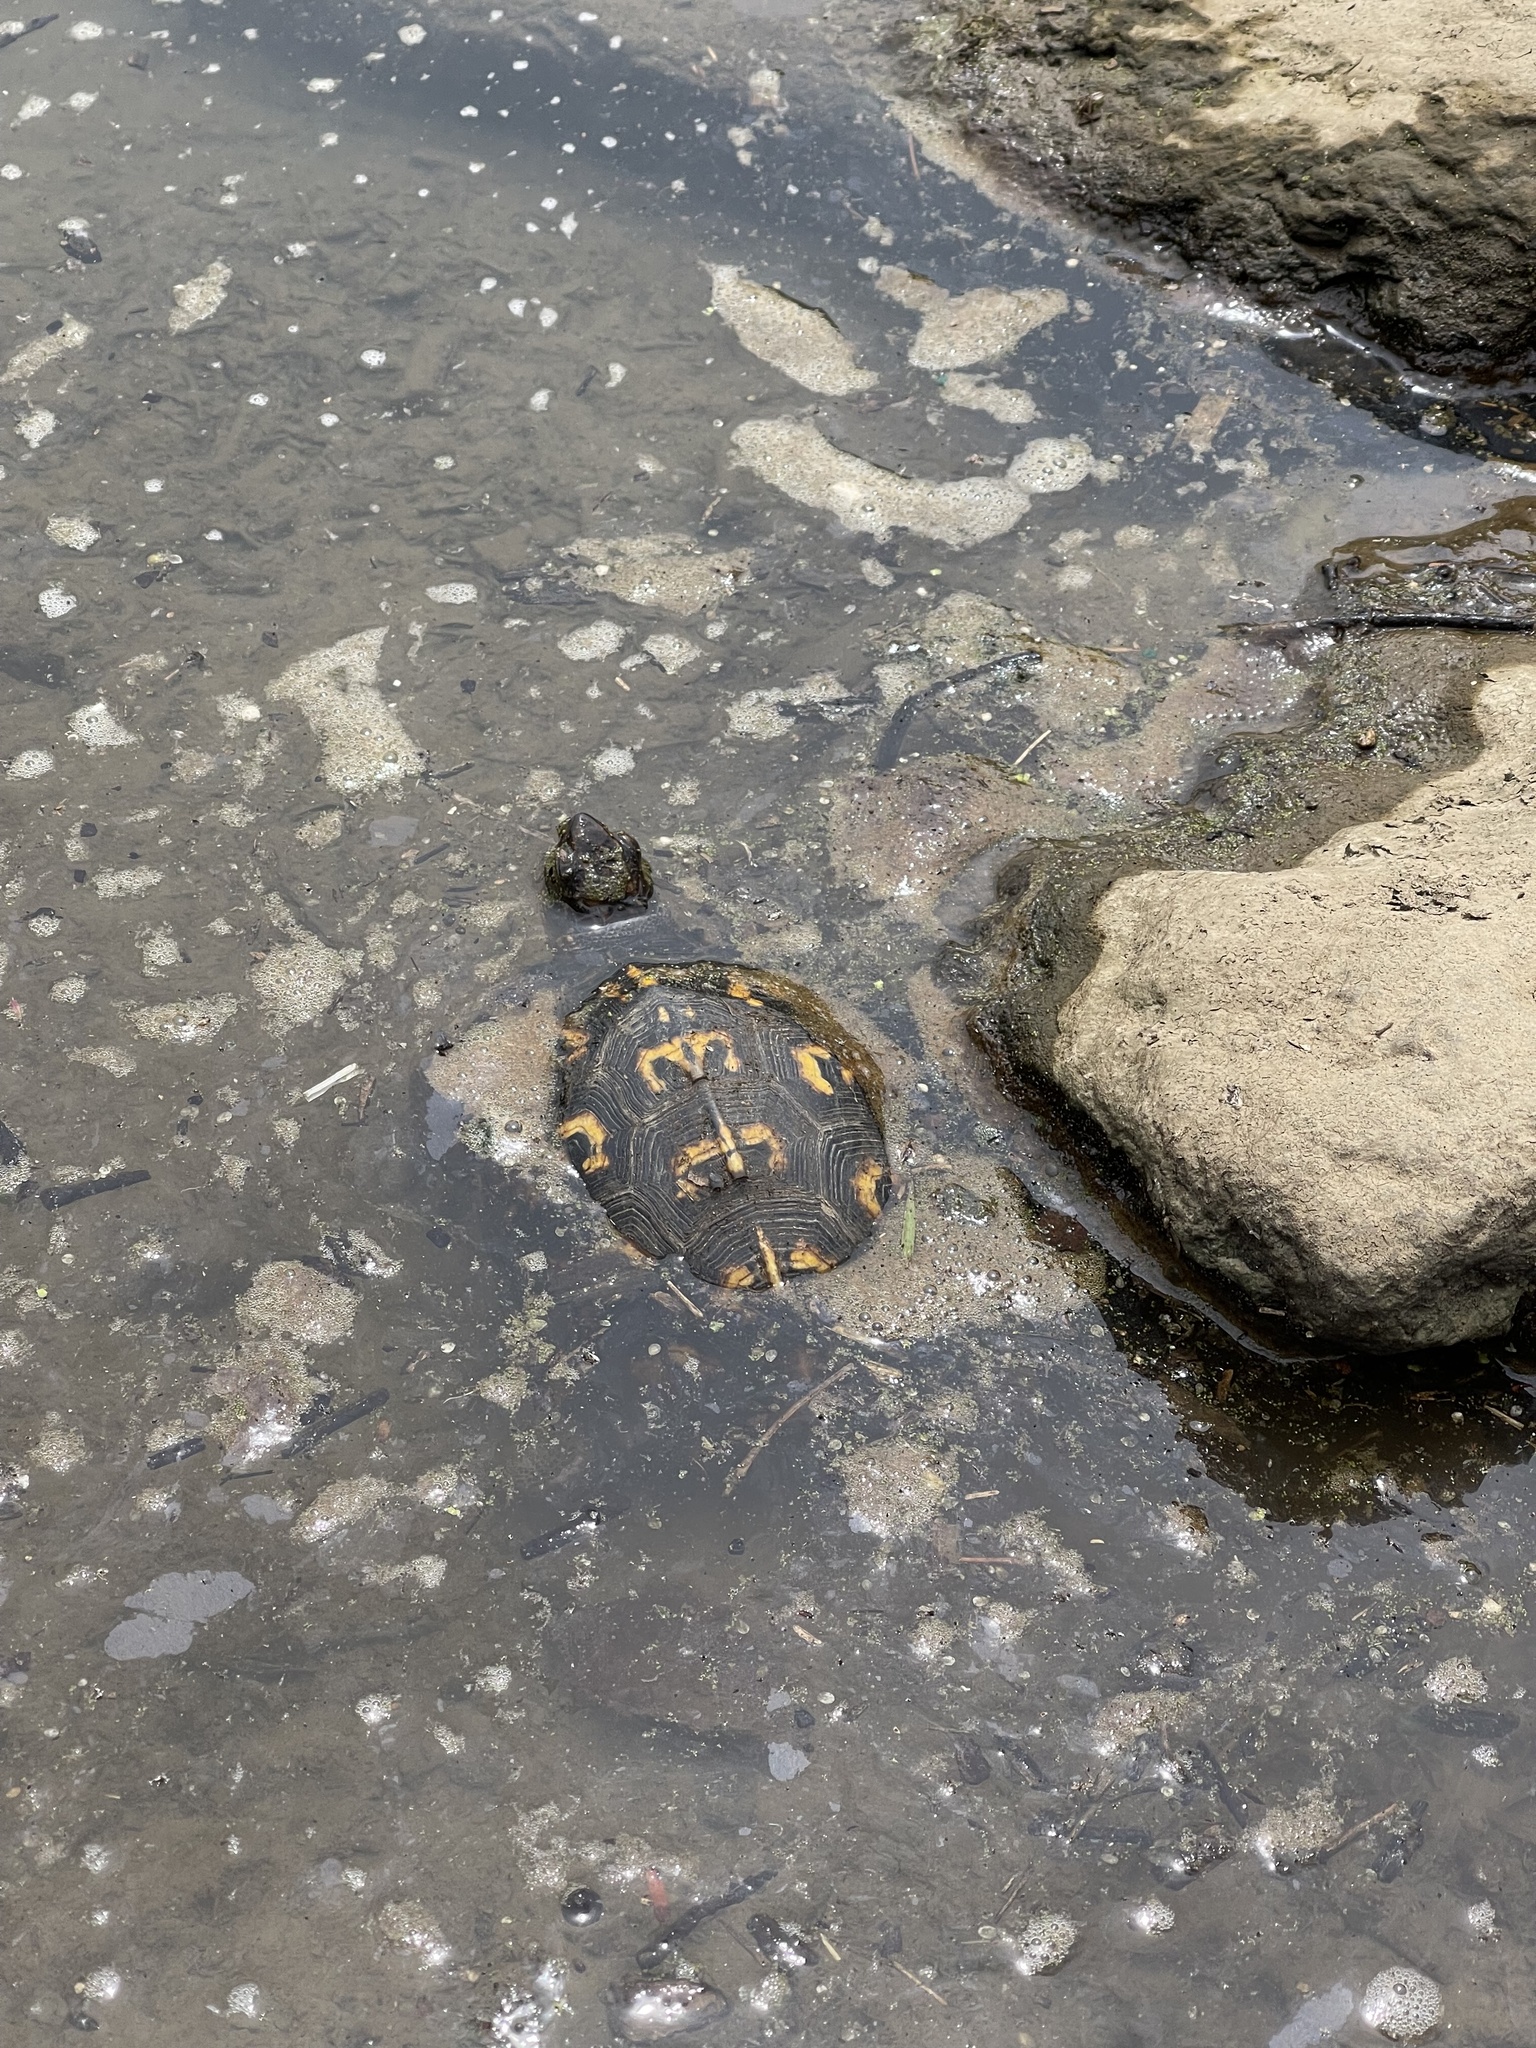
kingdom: Animalia
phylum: Chordata
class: Testudines
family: Emydidae
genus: Terrapene
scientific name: Terrapene carolina
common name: Common box turtle
